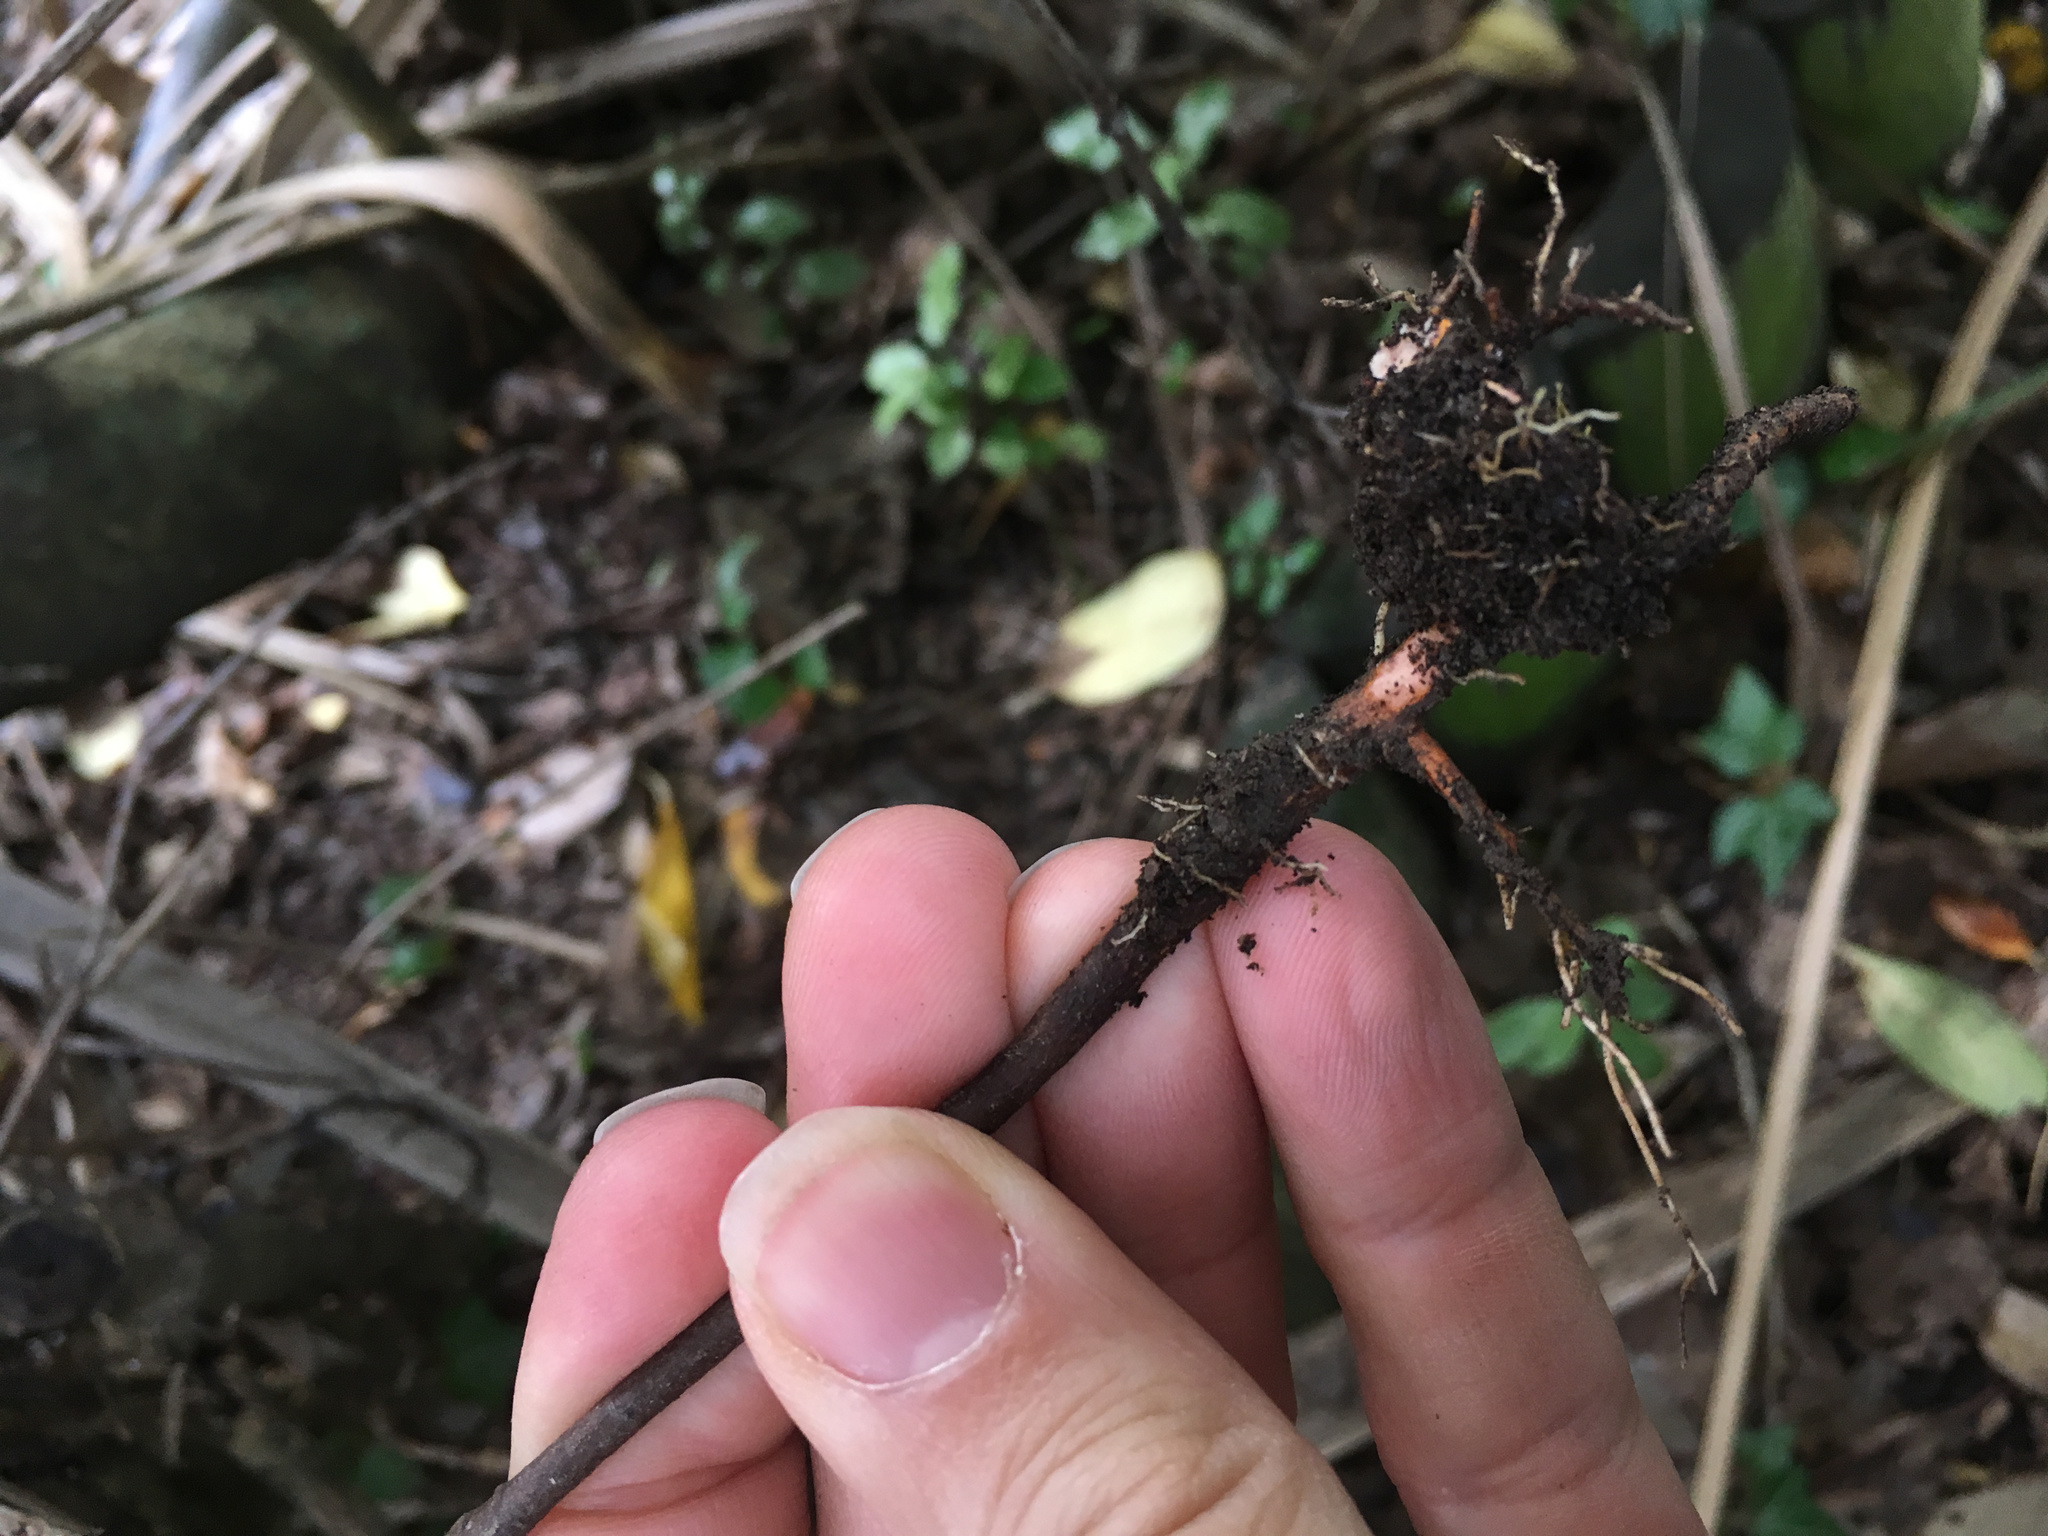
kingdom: Plantae
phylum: Tracheophyta
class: Magnoliopsida
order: Celastrales
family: Celastraceae
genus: Maytenus
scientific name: Maytenus boaria
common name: Mayten
